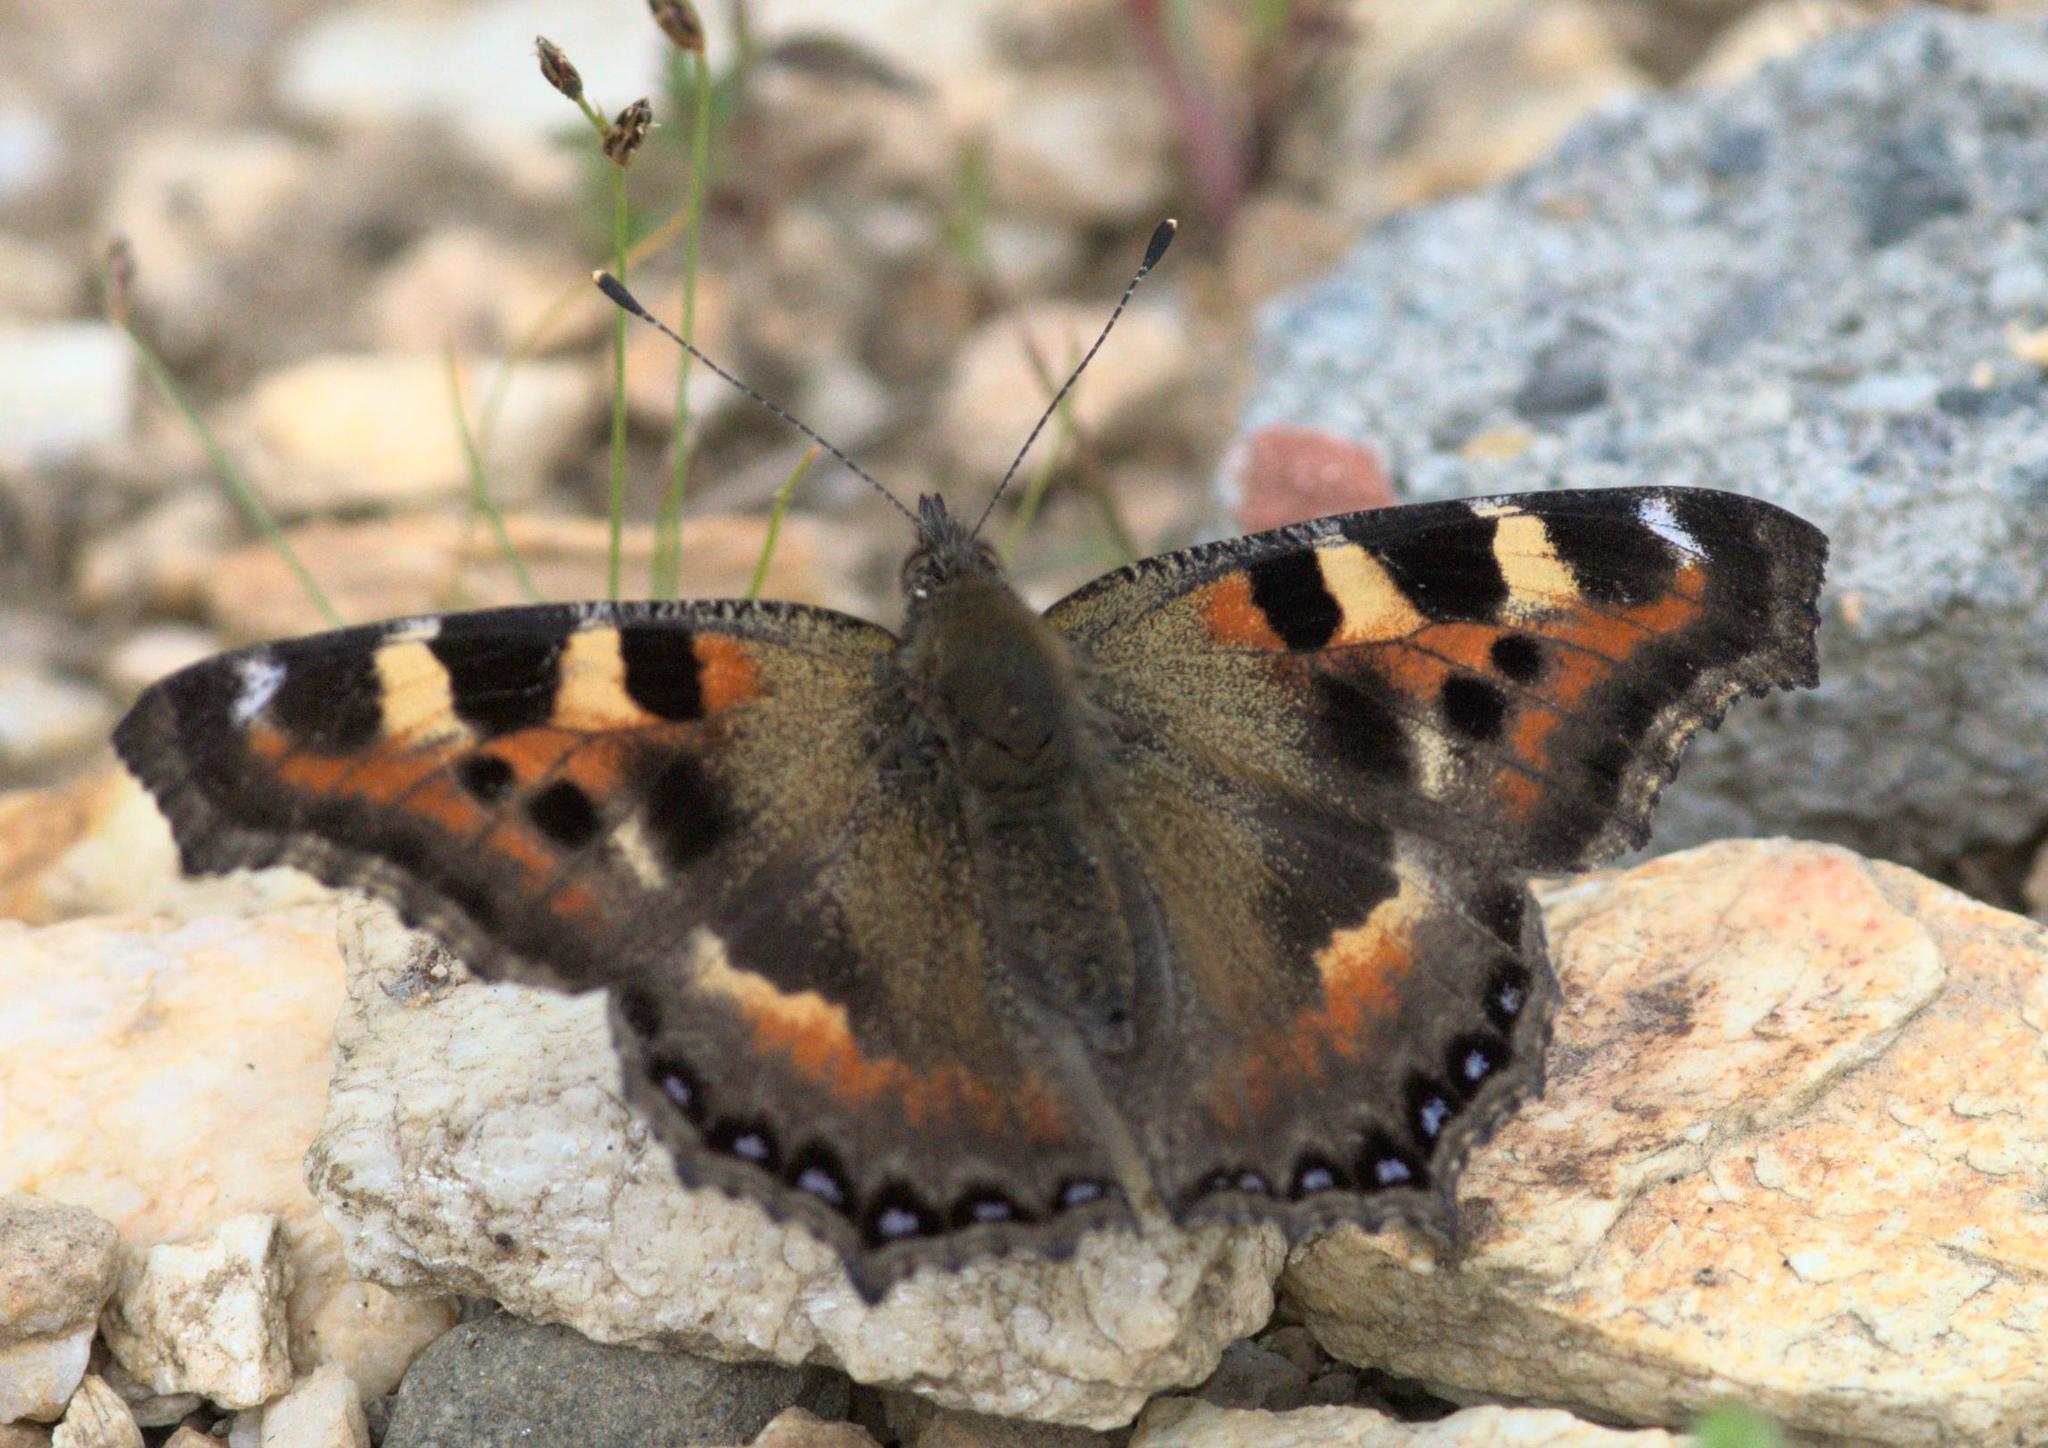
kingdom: Animalia
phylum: Arthropoda
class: Insecta
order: Lepidoptera
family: Nymphalidae
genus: Aglais
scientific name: Aglais caschmirensis
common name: Indian tortoiseshell
